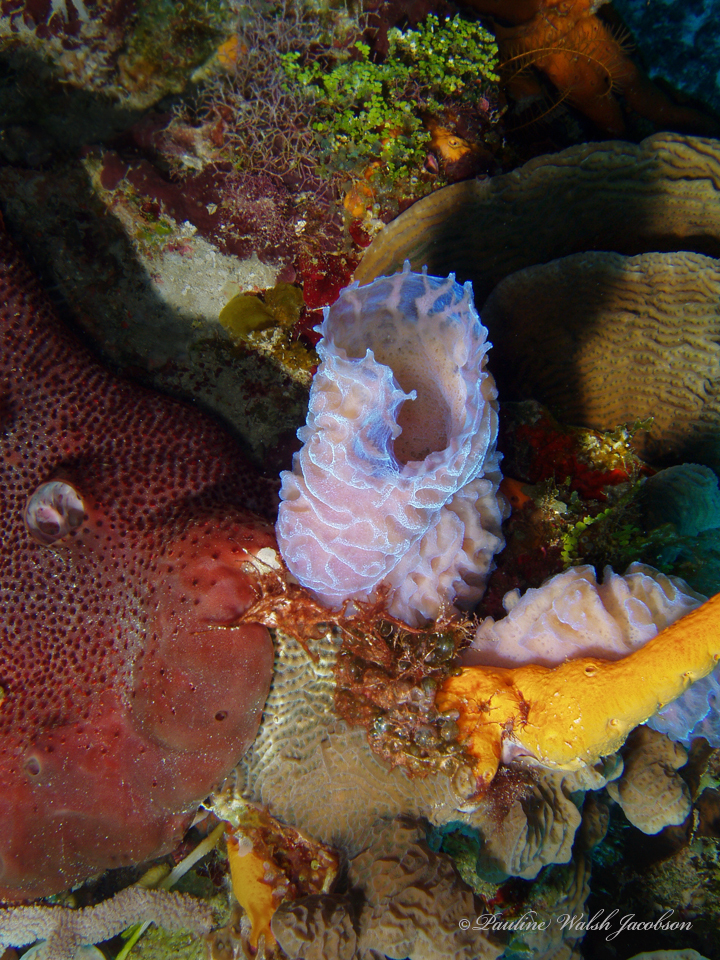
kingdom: Animalia
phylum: Porifera
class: Demospongiae
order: Haplosclerida
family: Callyspongiidae
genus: Callyspongia
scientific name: Callyspongia plicifera
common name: Azure vase sponge
